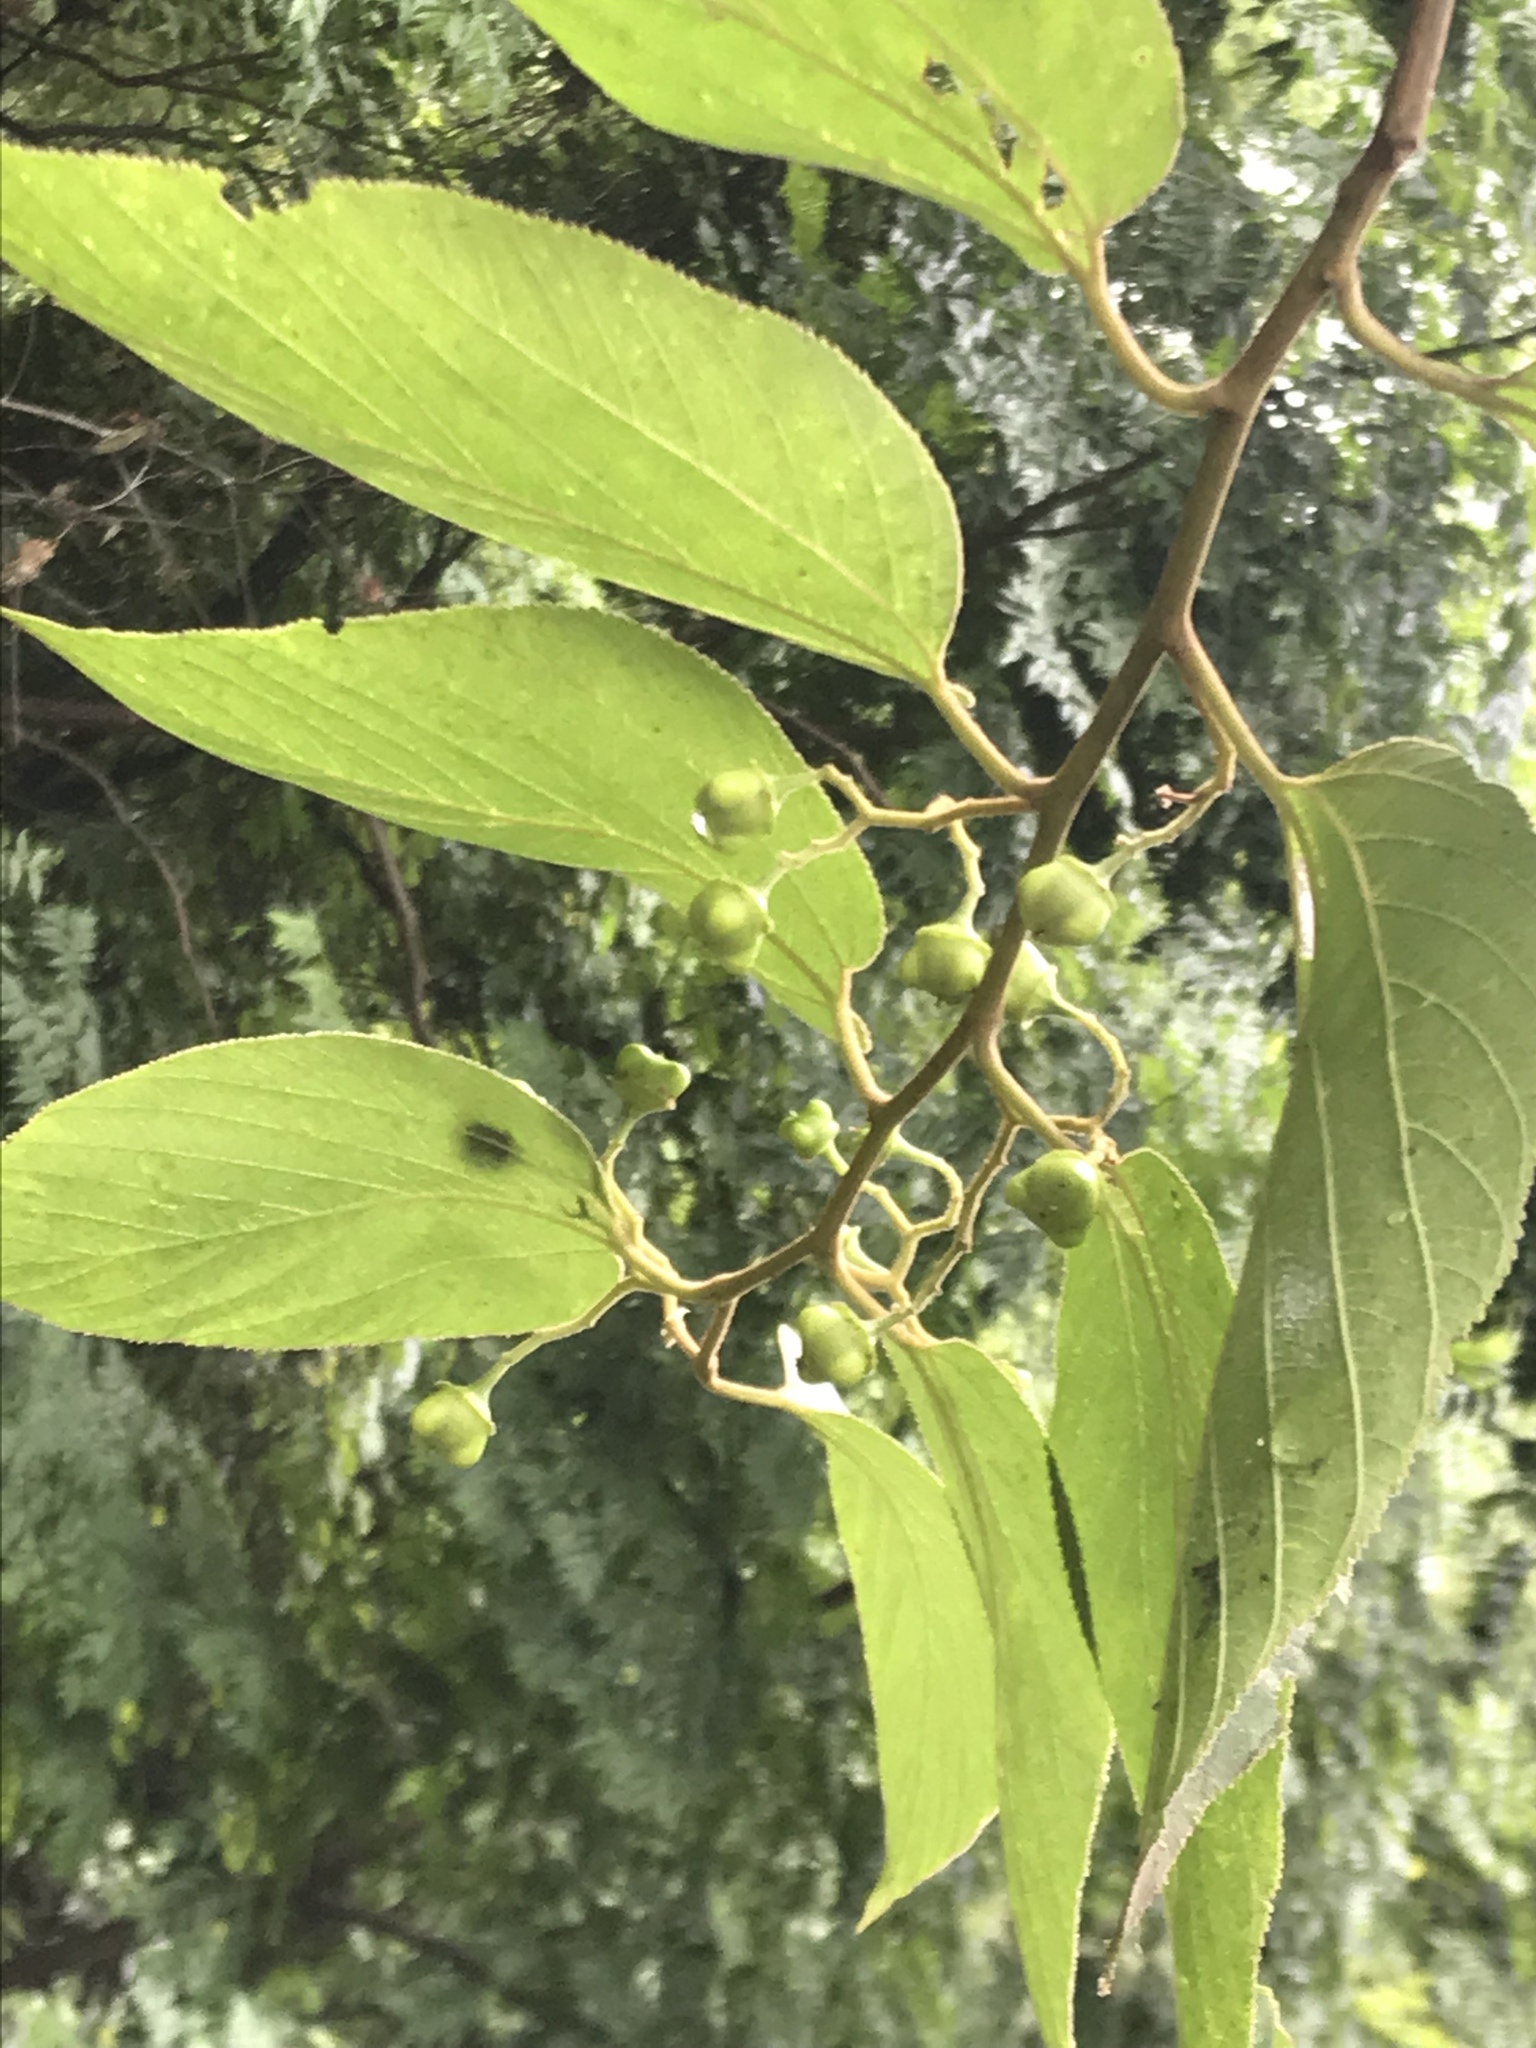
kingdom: Plantae
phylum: Tracheophyta
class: Magnoliopsida
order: Rosales
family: Rhamnaceae
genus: Colubrina
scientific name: Colubrina greggii
